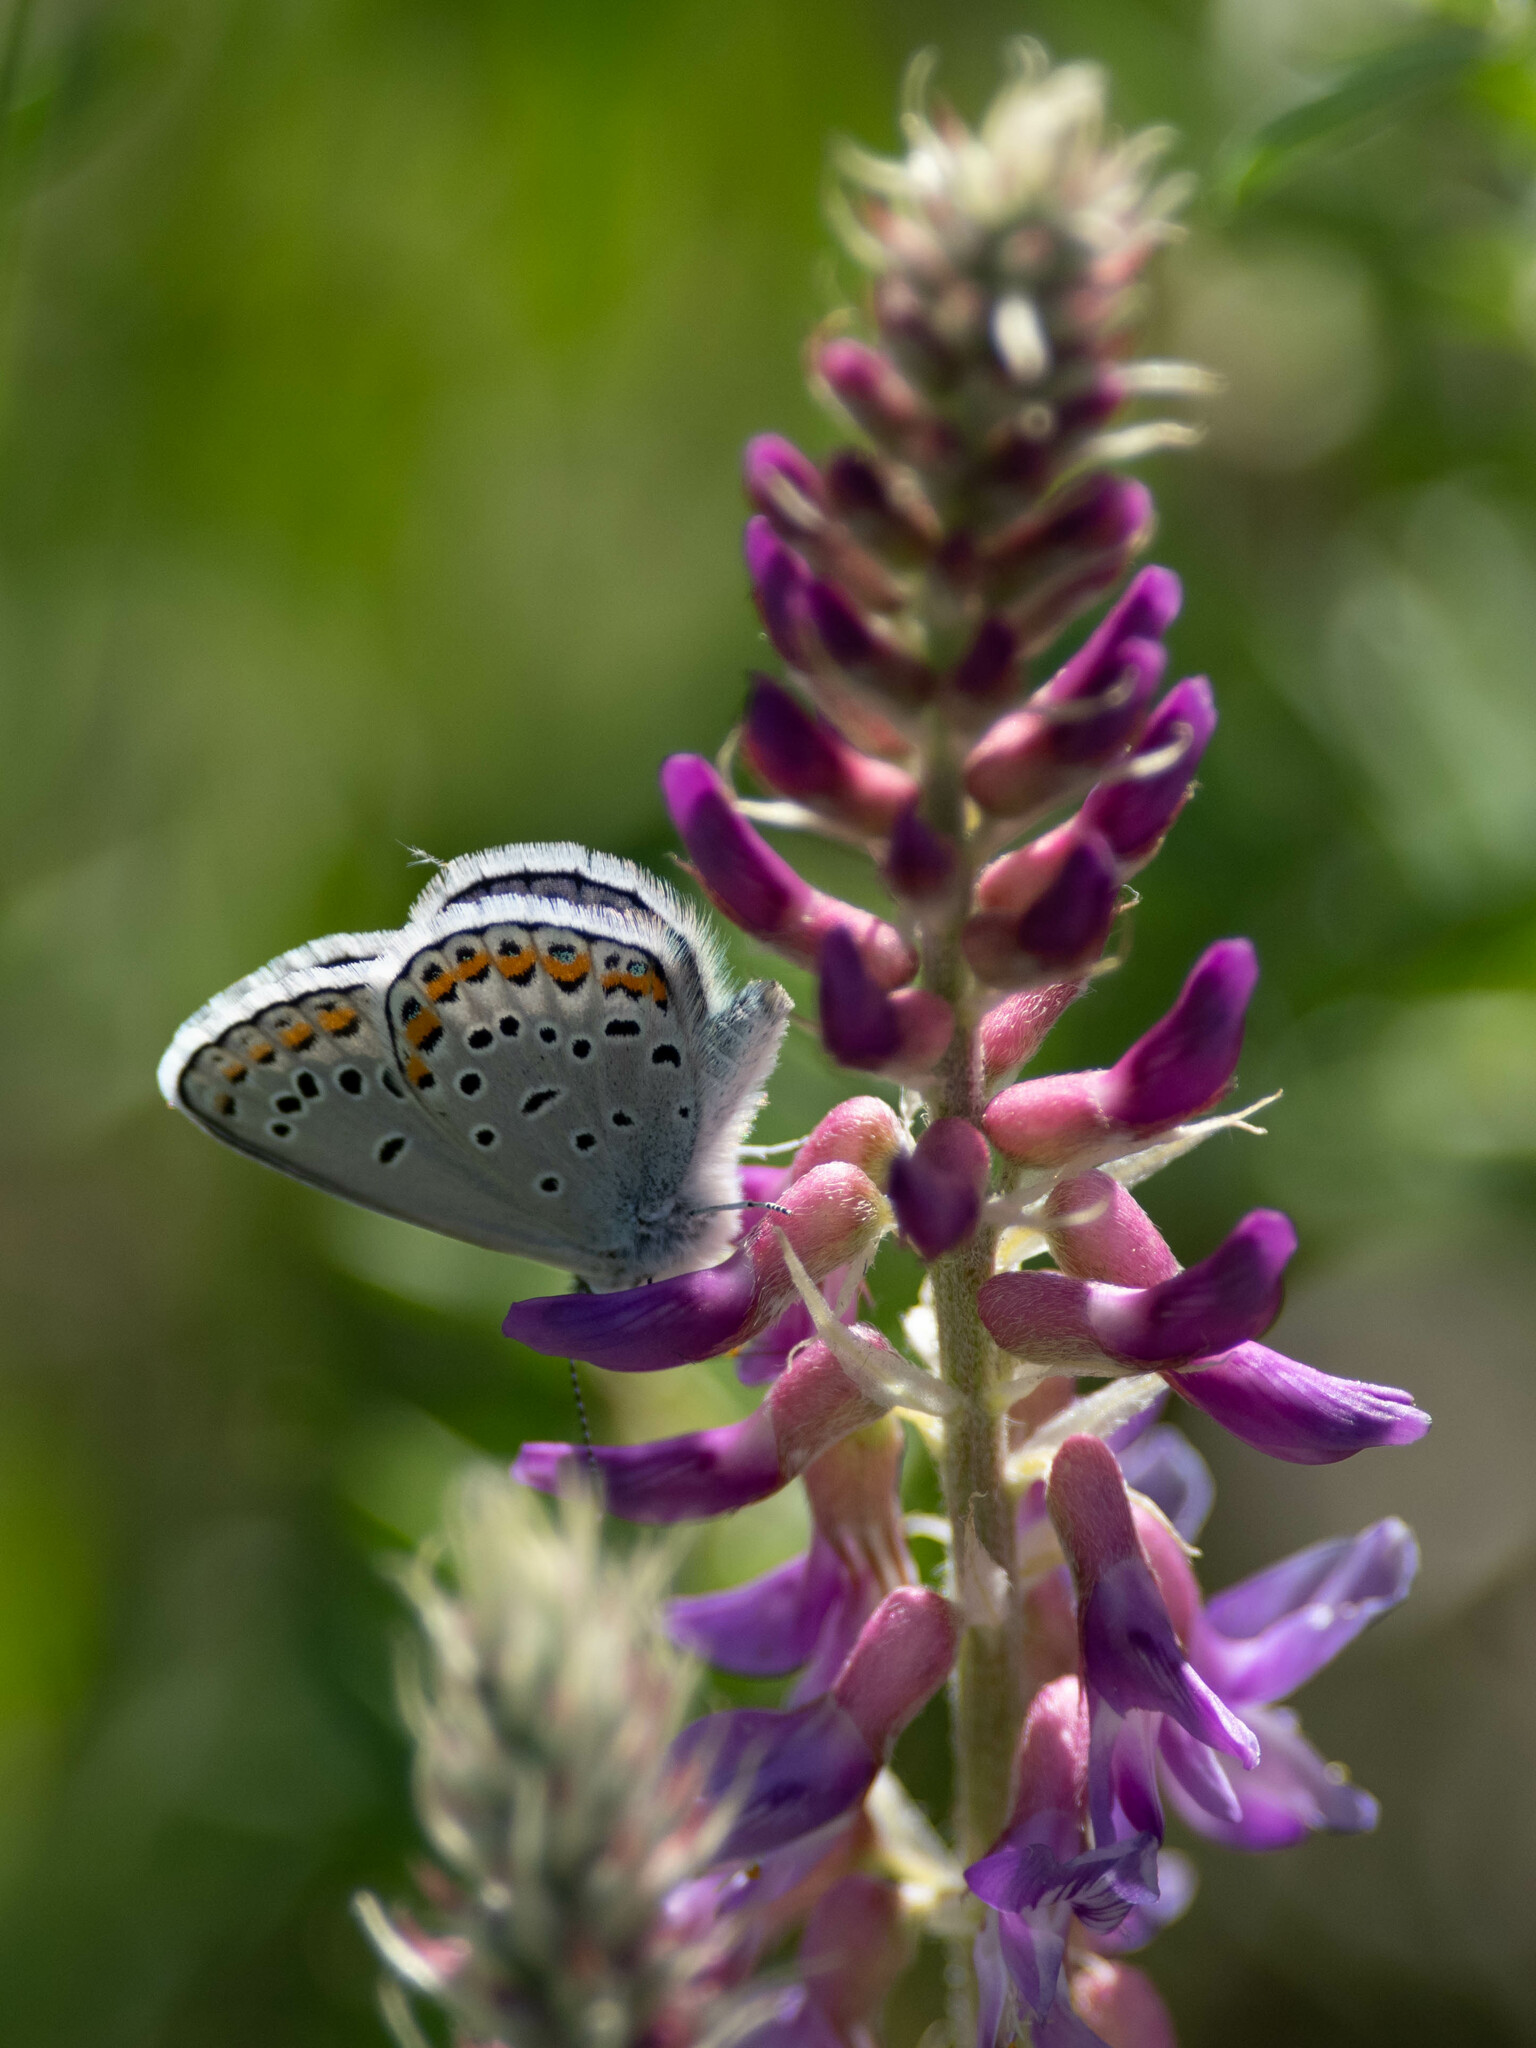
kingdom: Animalia
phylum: Arthropoda
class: Insecta
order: Lepidoptera
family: Lycaenidae
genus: Lycaeides
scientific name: Lycaeides melissa
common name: Melissa blue
